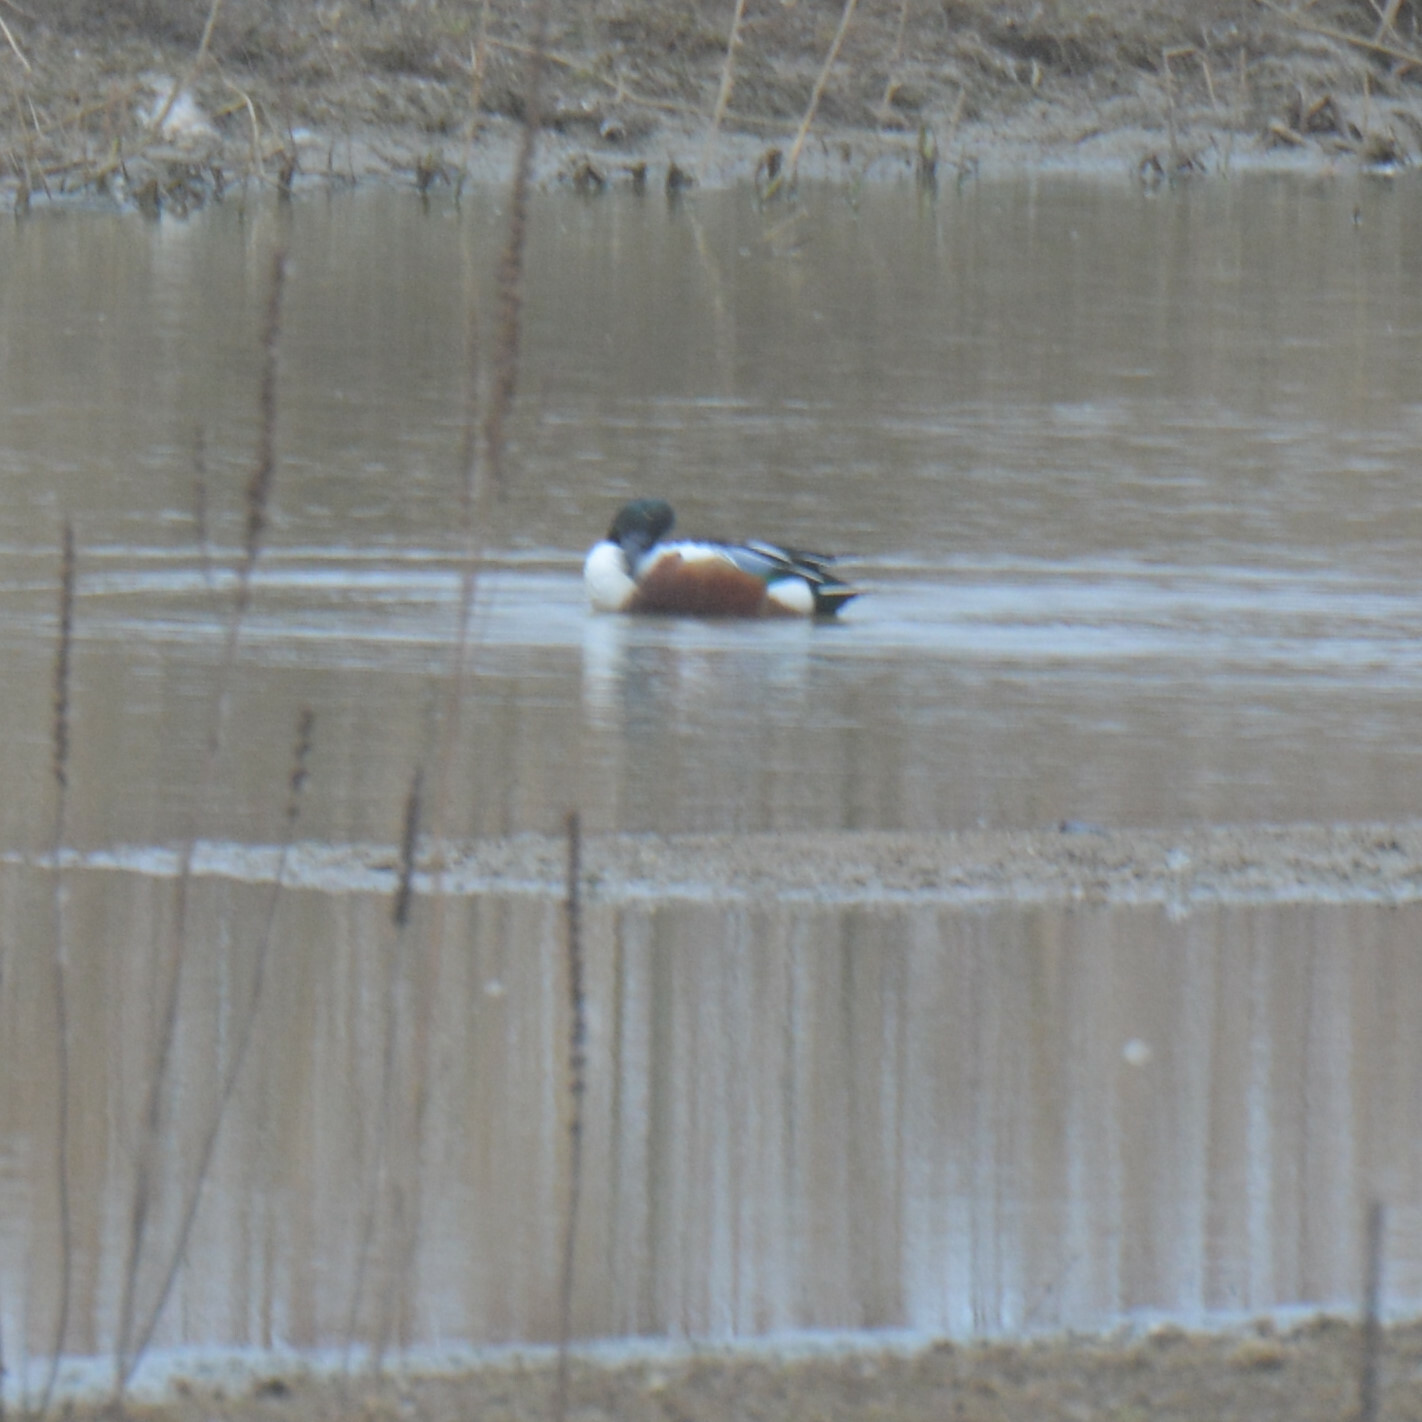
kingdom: Animalia
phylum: Chordata
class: Aves
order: Anseriformes
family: Anatidae
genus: Spatula
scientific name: Spatula clypeata
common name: Northern shoveler
